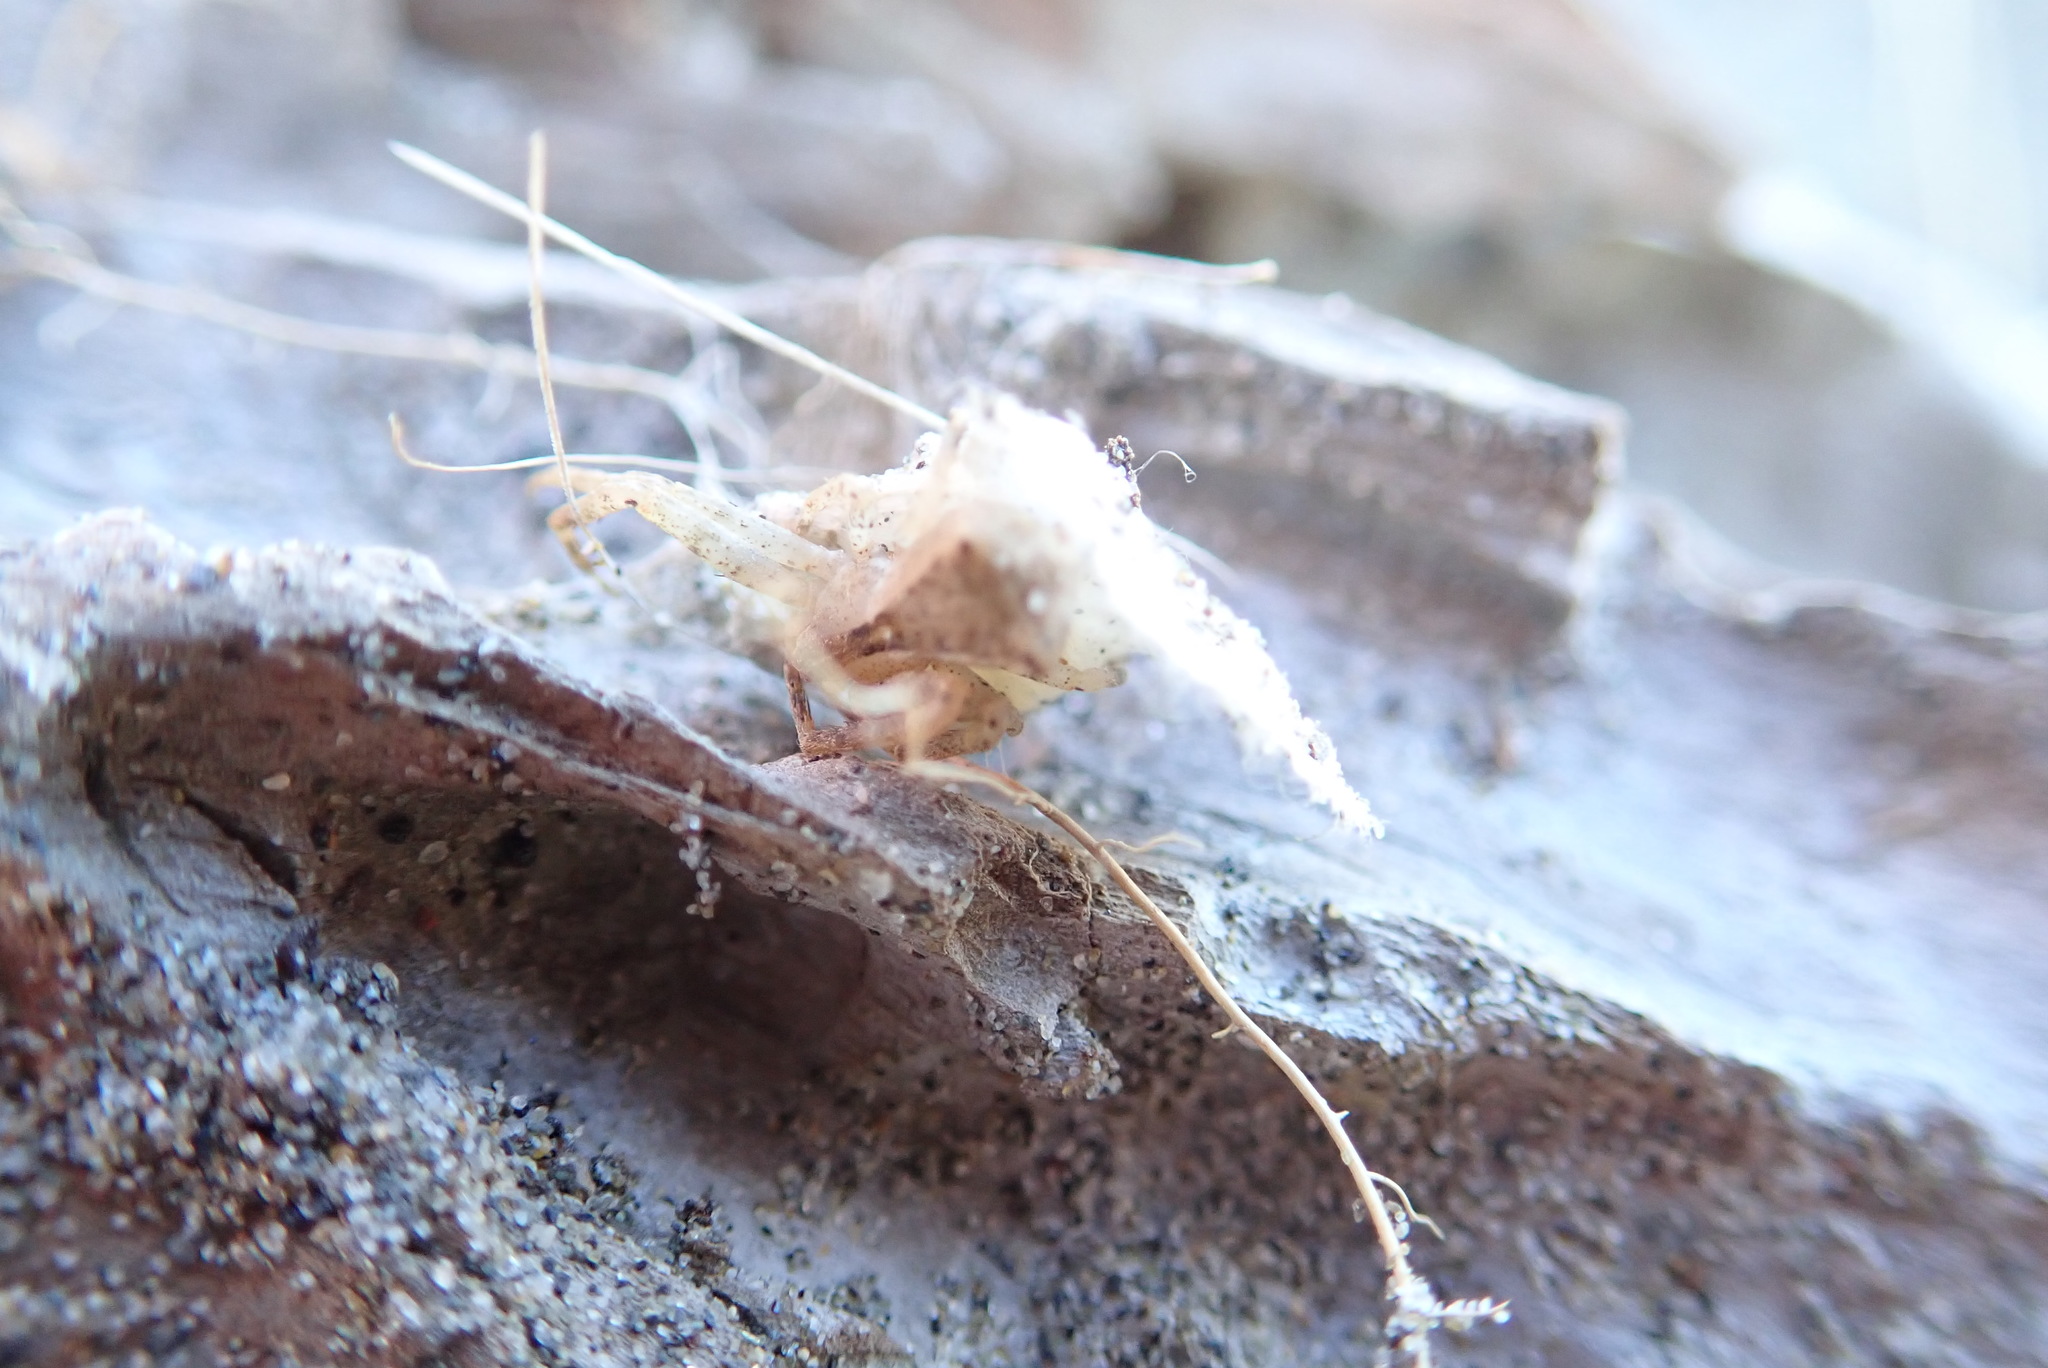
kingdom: Animalia
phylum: Arthropoda
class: Arachnida
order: Araneae
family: Thomisidae
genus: Sidymella
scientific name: Sidymella trapezia
